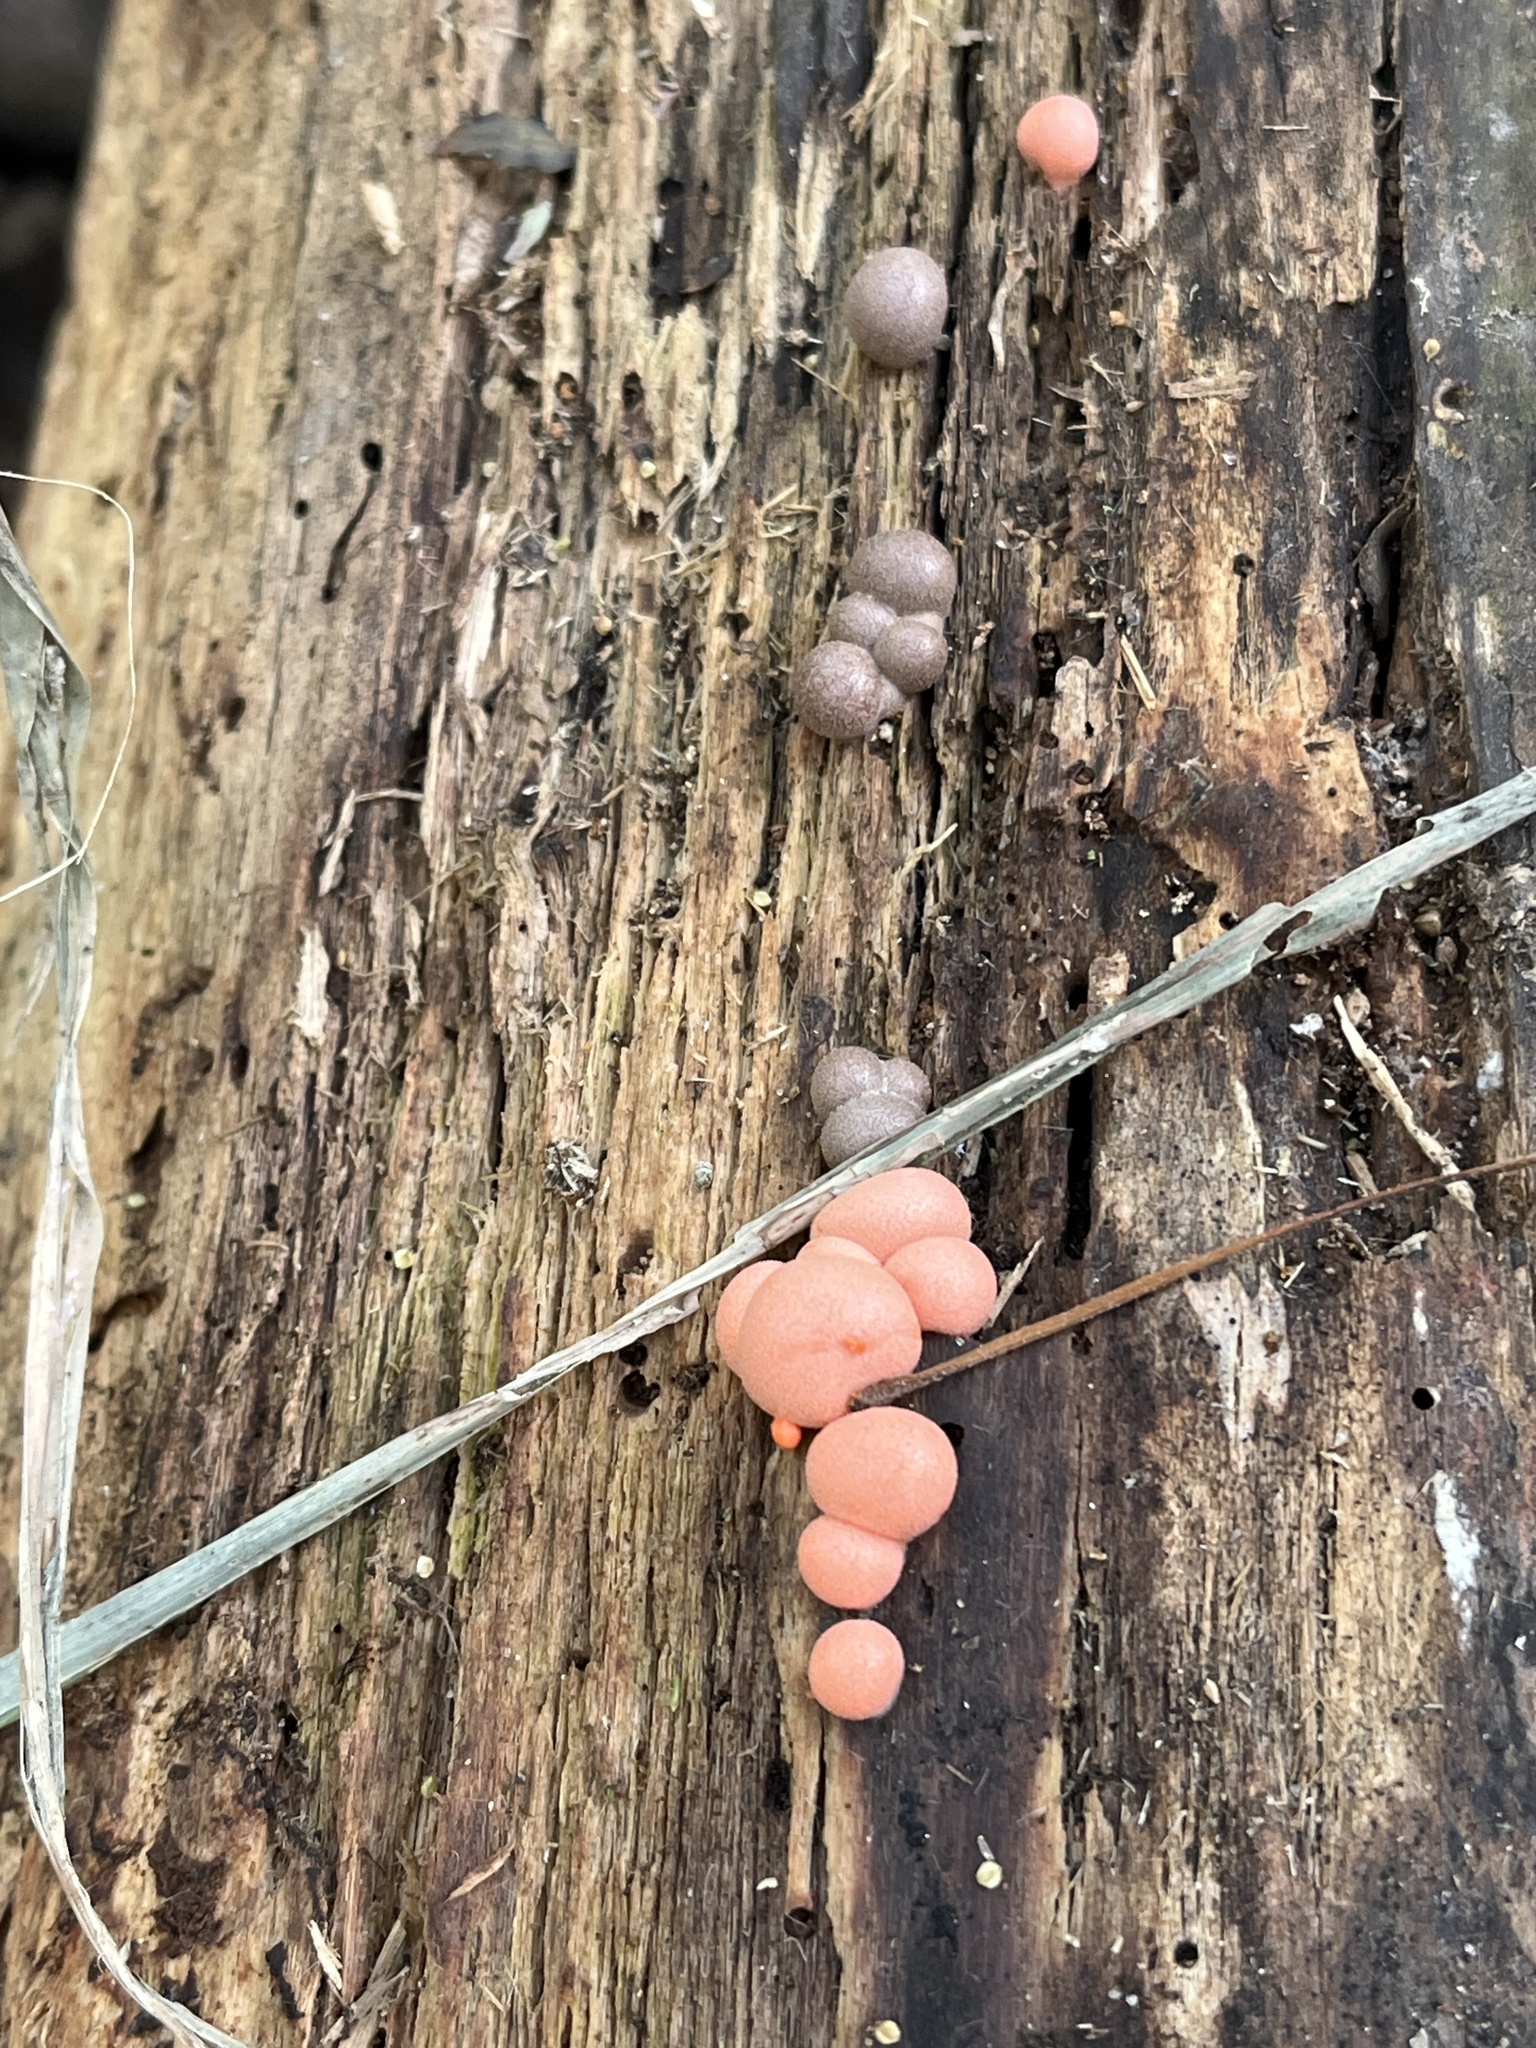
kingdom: Protozoa
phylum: Mycetozoa
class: Myxomycetes
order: Cribrariales
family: Tubiferaceae
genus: Lycogala
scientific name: Lycogala epidendrum
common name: Wolf's milk
